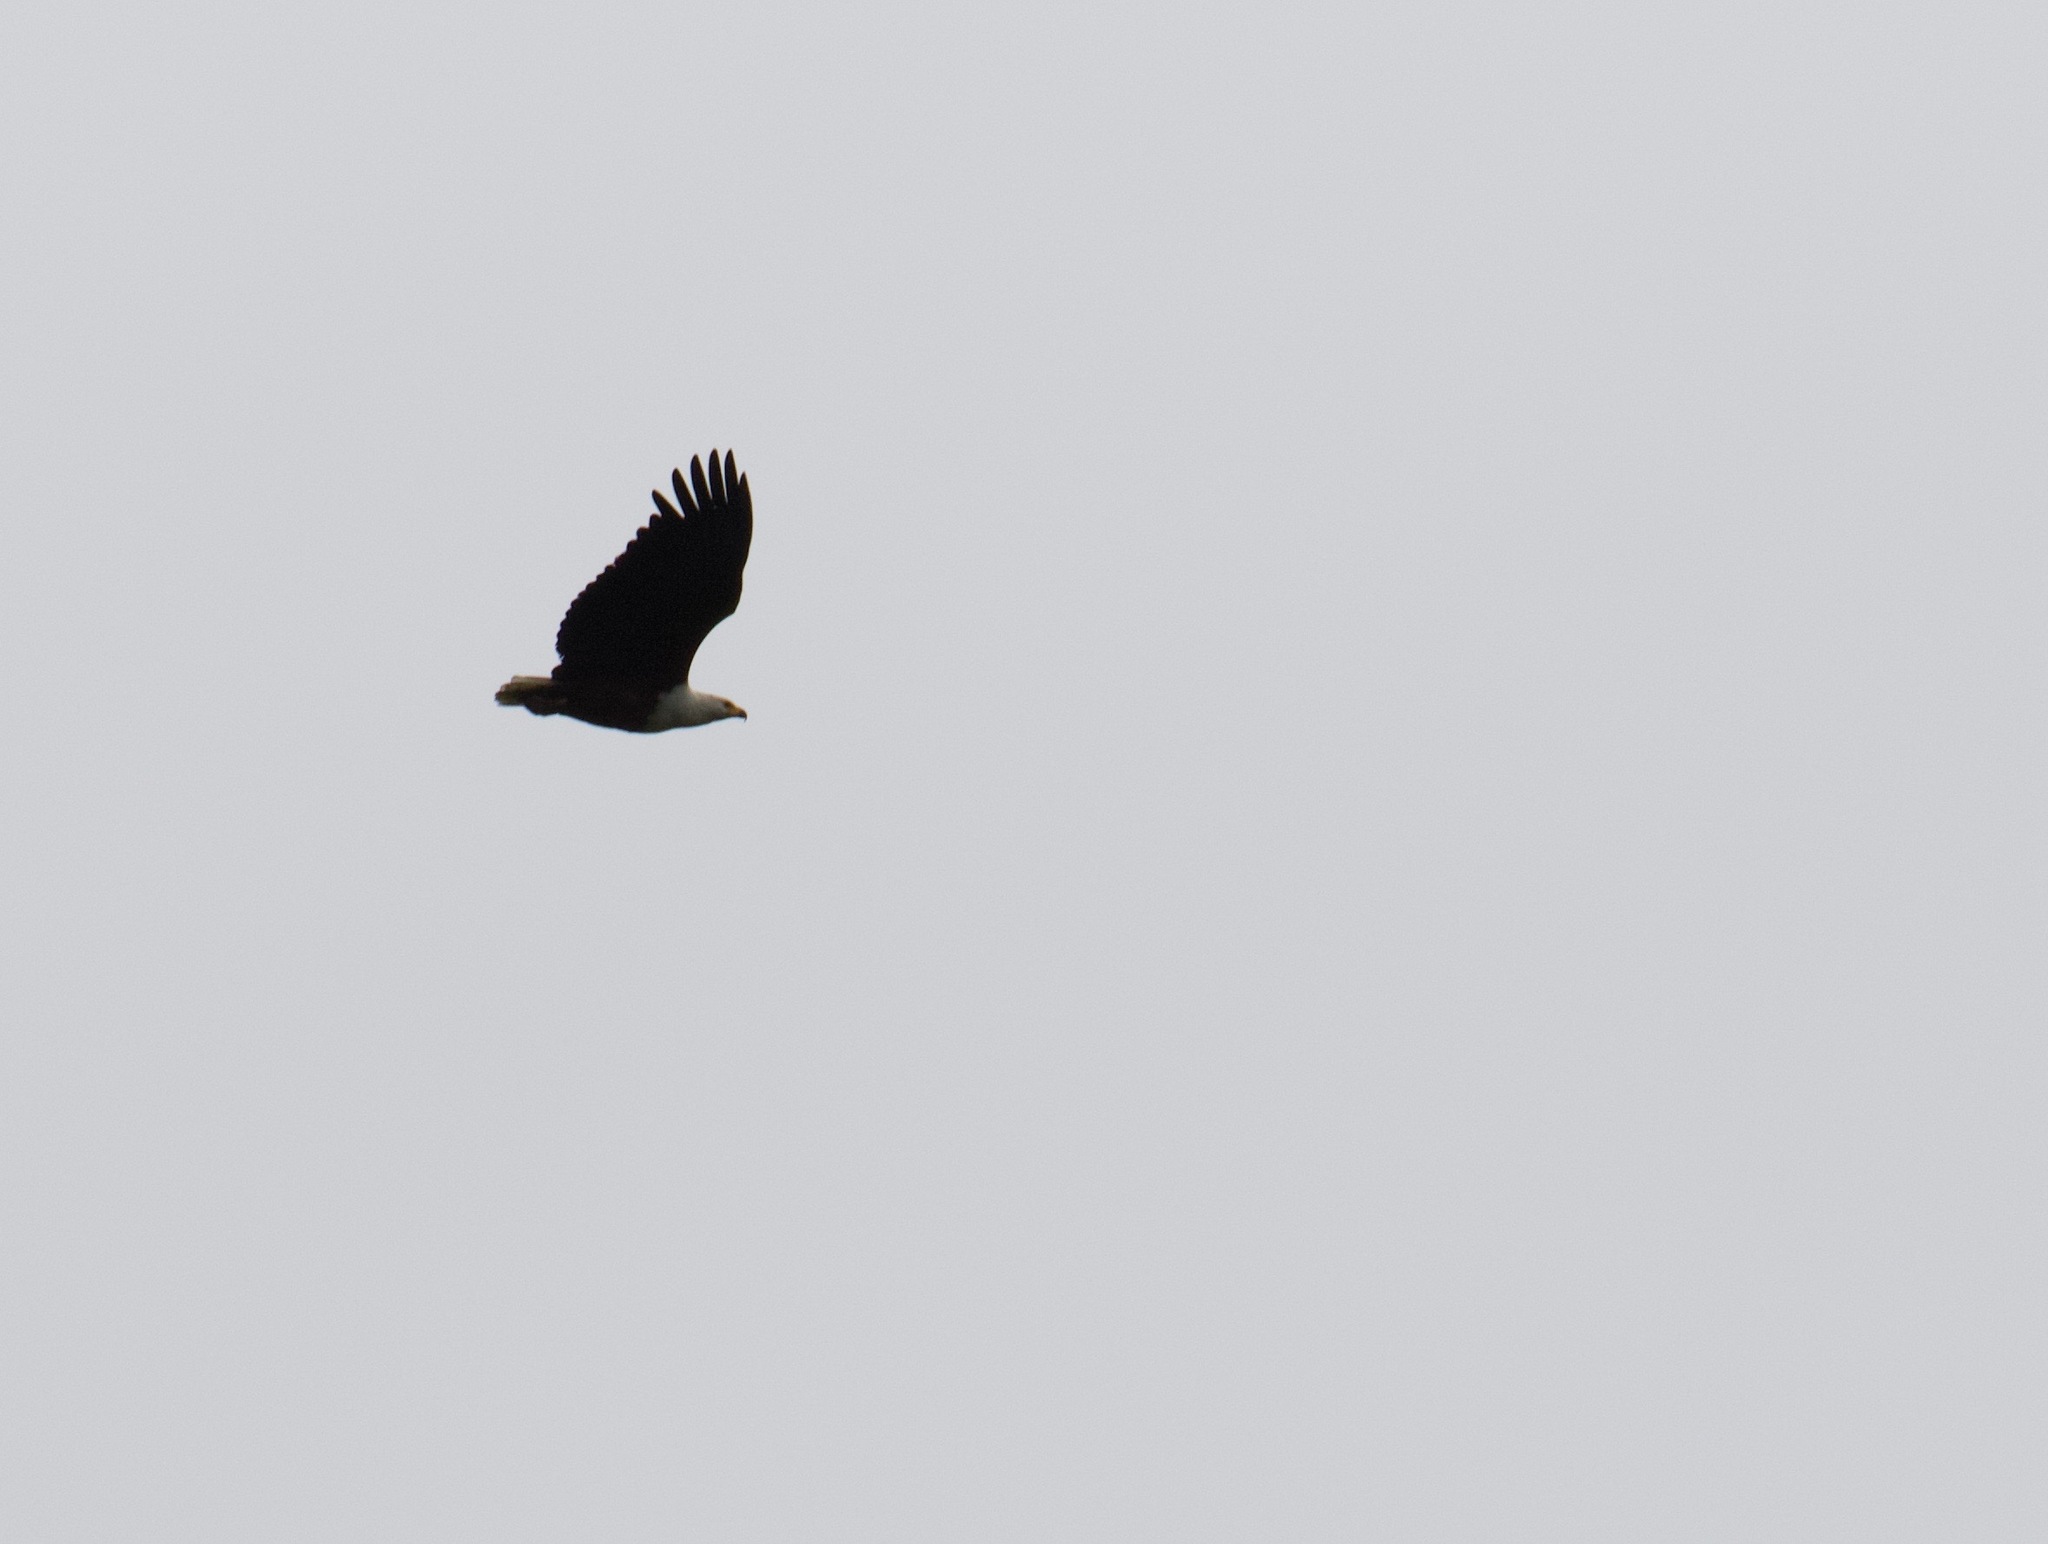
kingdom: Animalia
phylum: Chordata
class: Aves
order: Accipitriformes
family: Accipitridae
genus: Haliaeetus
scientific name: Haliaeetus vocifer
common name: African fish eagle
